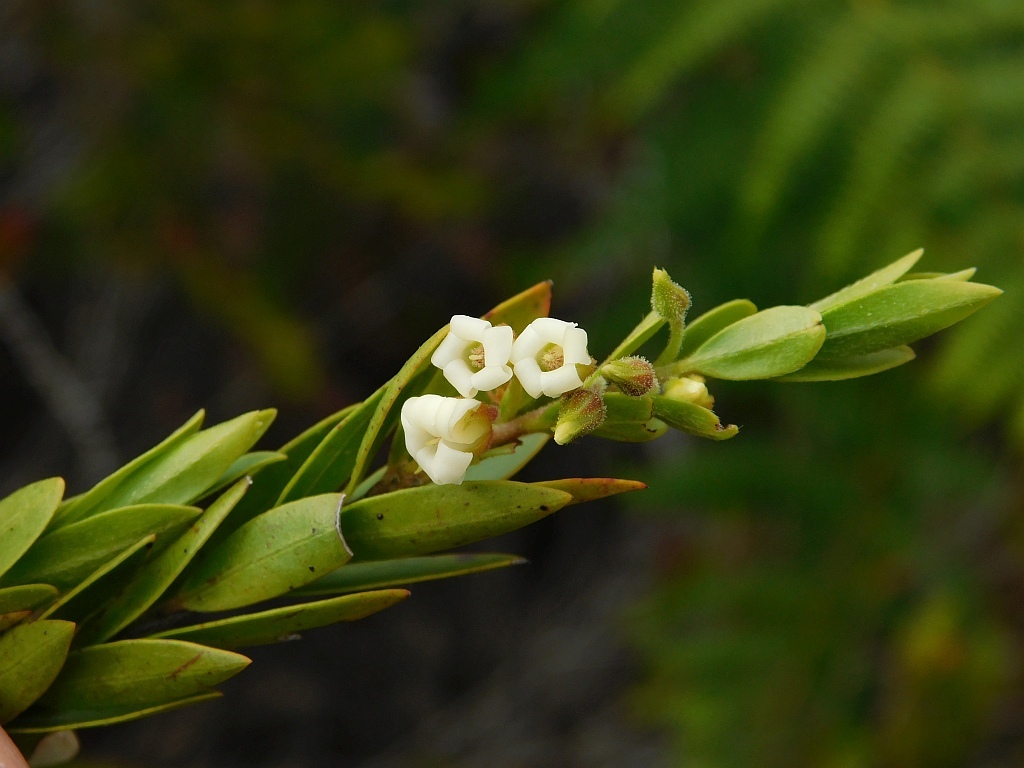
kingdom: Plantae
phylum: Tracheophyta
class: Magnoliopsida
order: Ericales
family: Ebenaceae
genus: Diospyros
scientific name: Diospyros glabra
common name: Fynbos star apple
